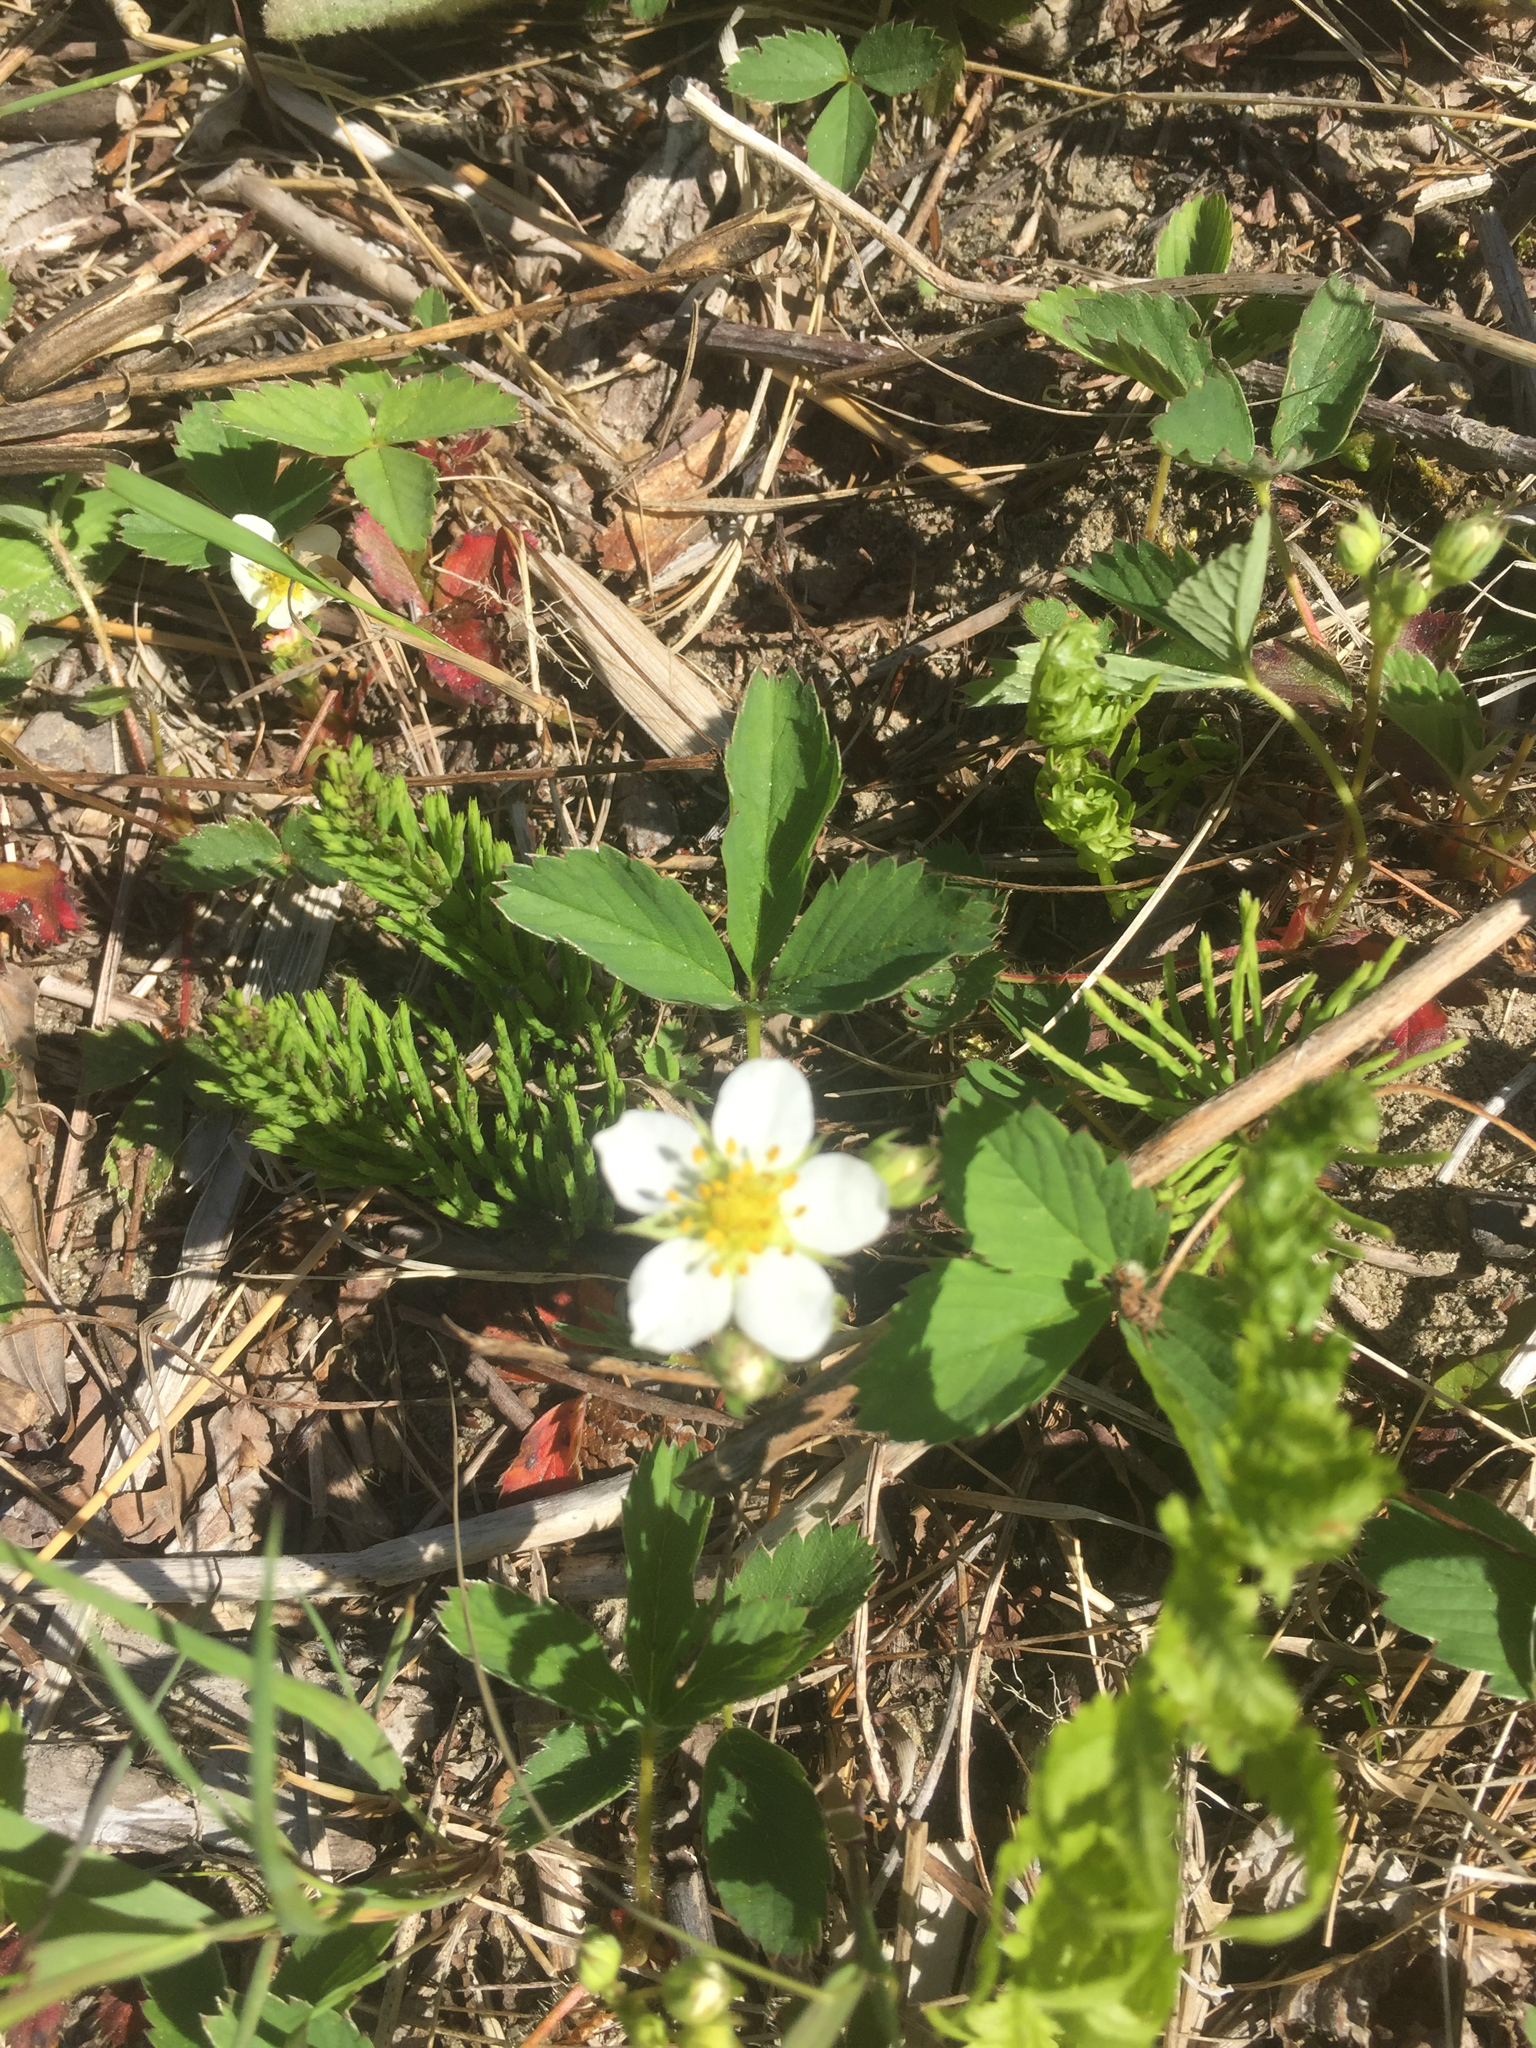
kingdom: Plantae
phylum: Tracheophyta
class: Magnoliopsida
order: Rosales
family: Rosaceae
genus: Fragaria
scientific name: Fragaria vesca
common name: Wild strawberry
